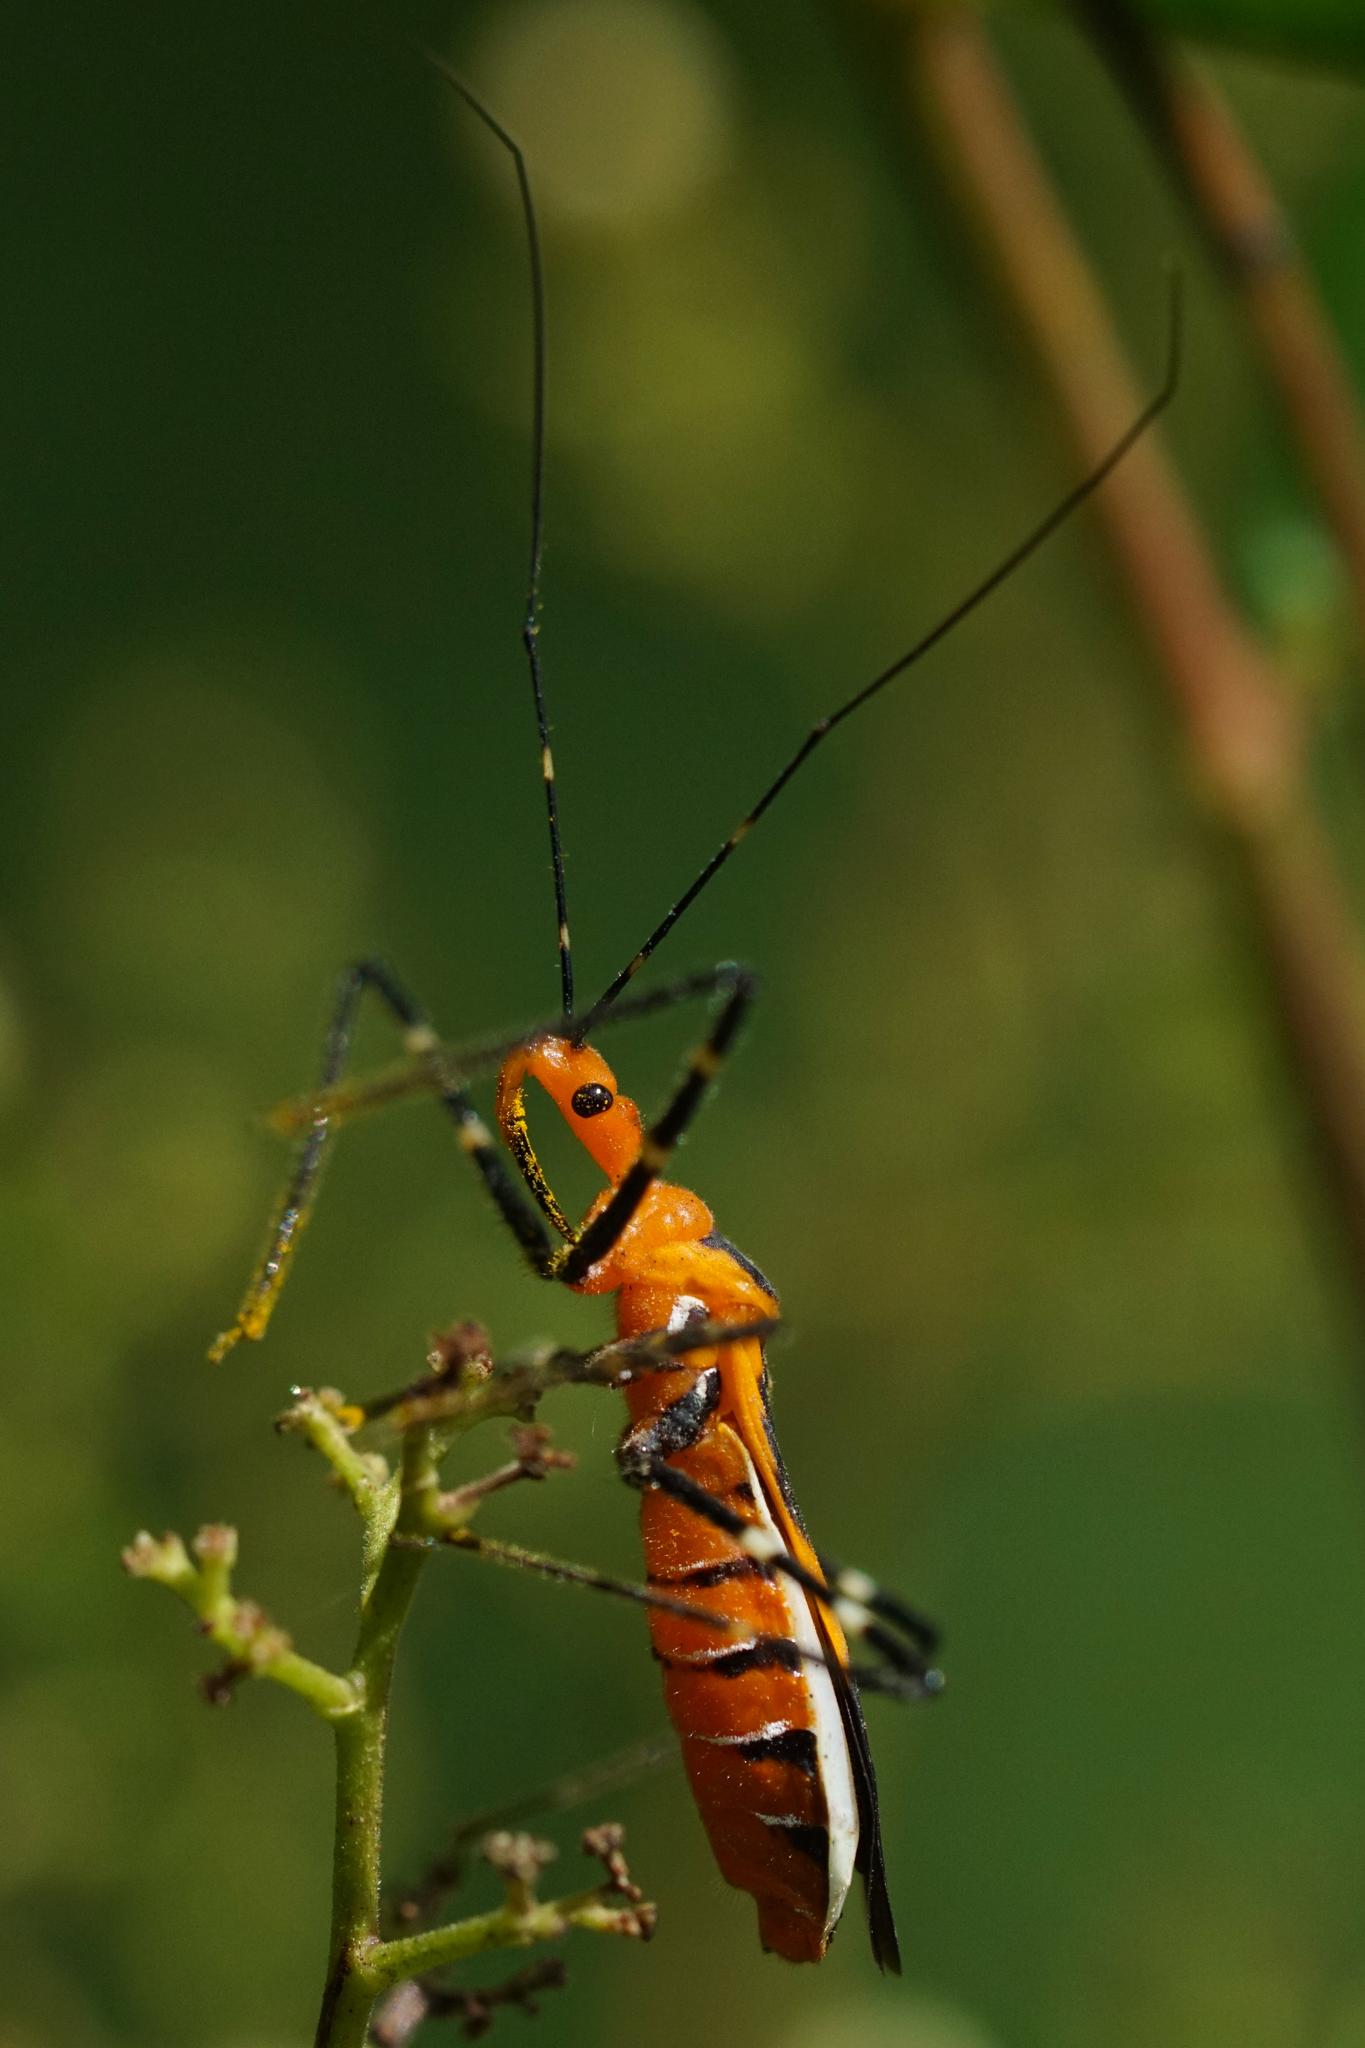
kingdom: Animalia
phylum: Arthropoda
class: Insecta
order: Hemiptera
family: Reduviidae
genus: Zelus
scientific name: Zelus longipes
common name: Milkweed assassin bug
